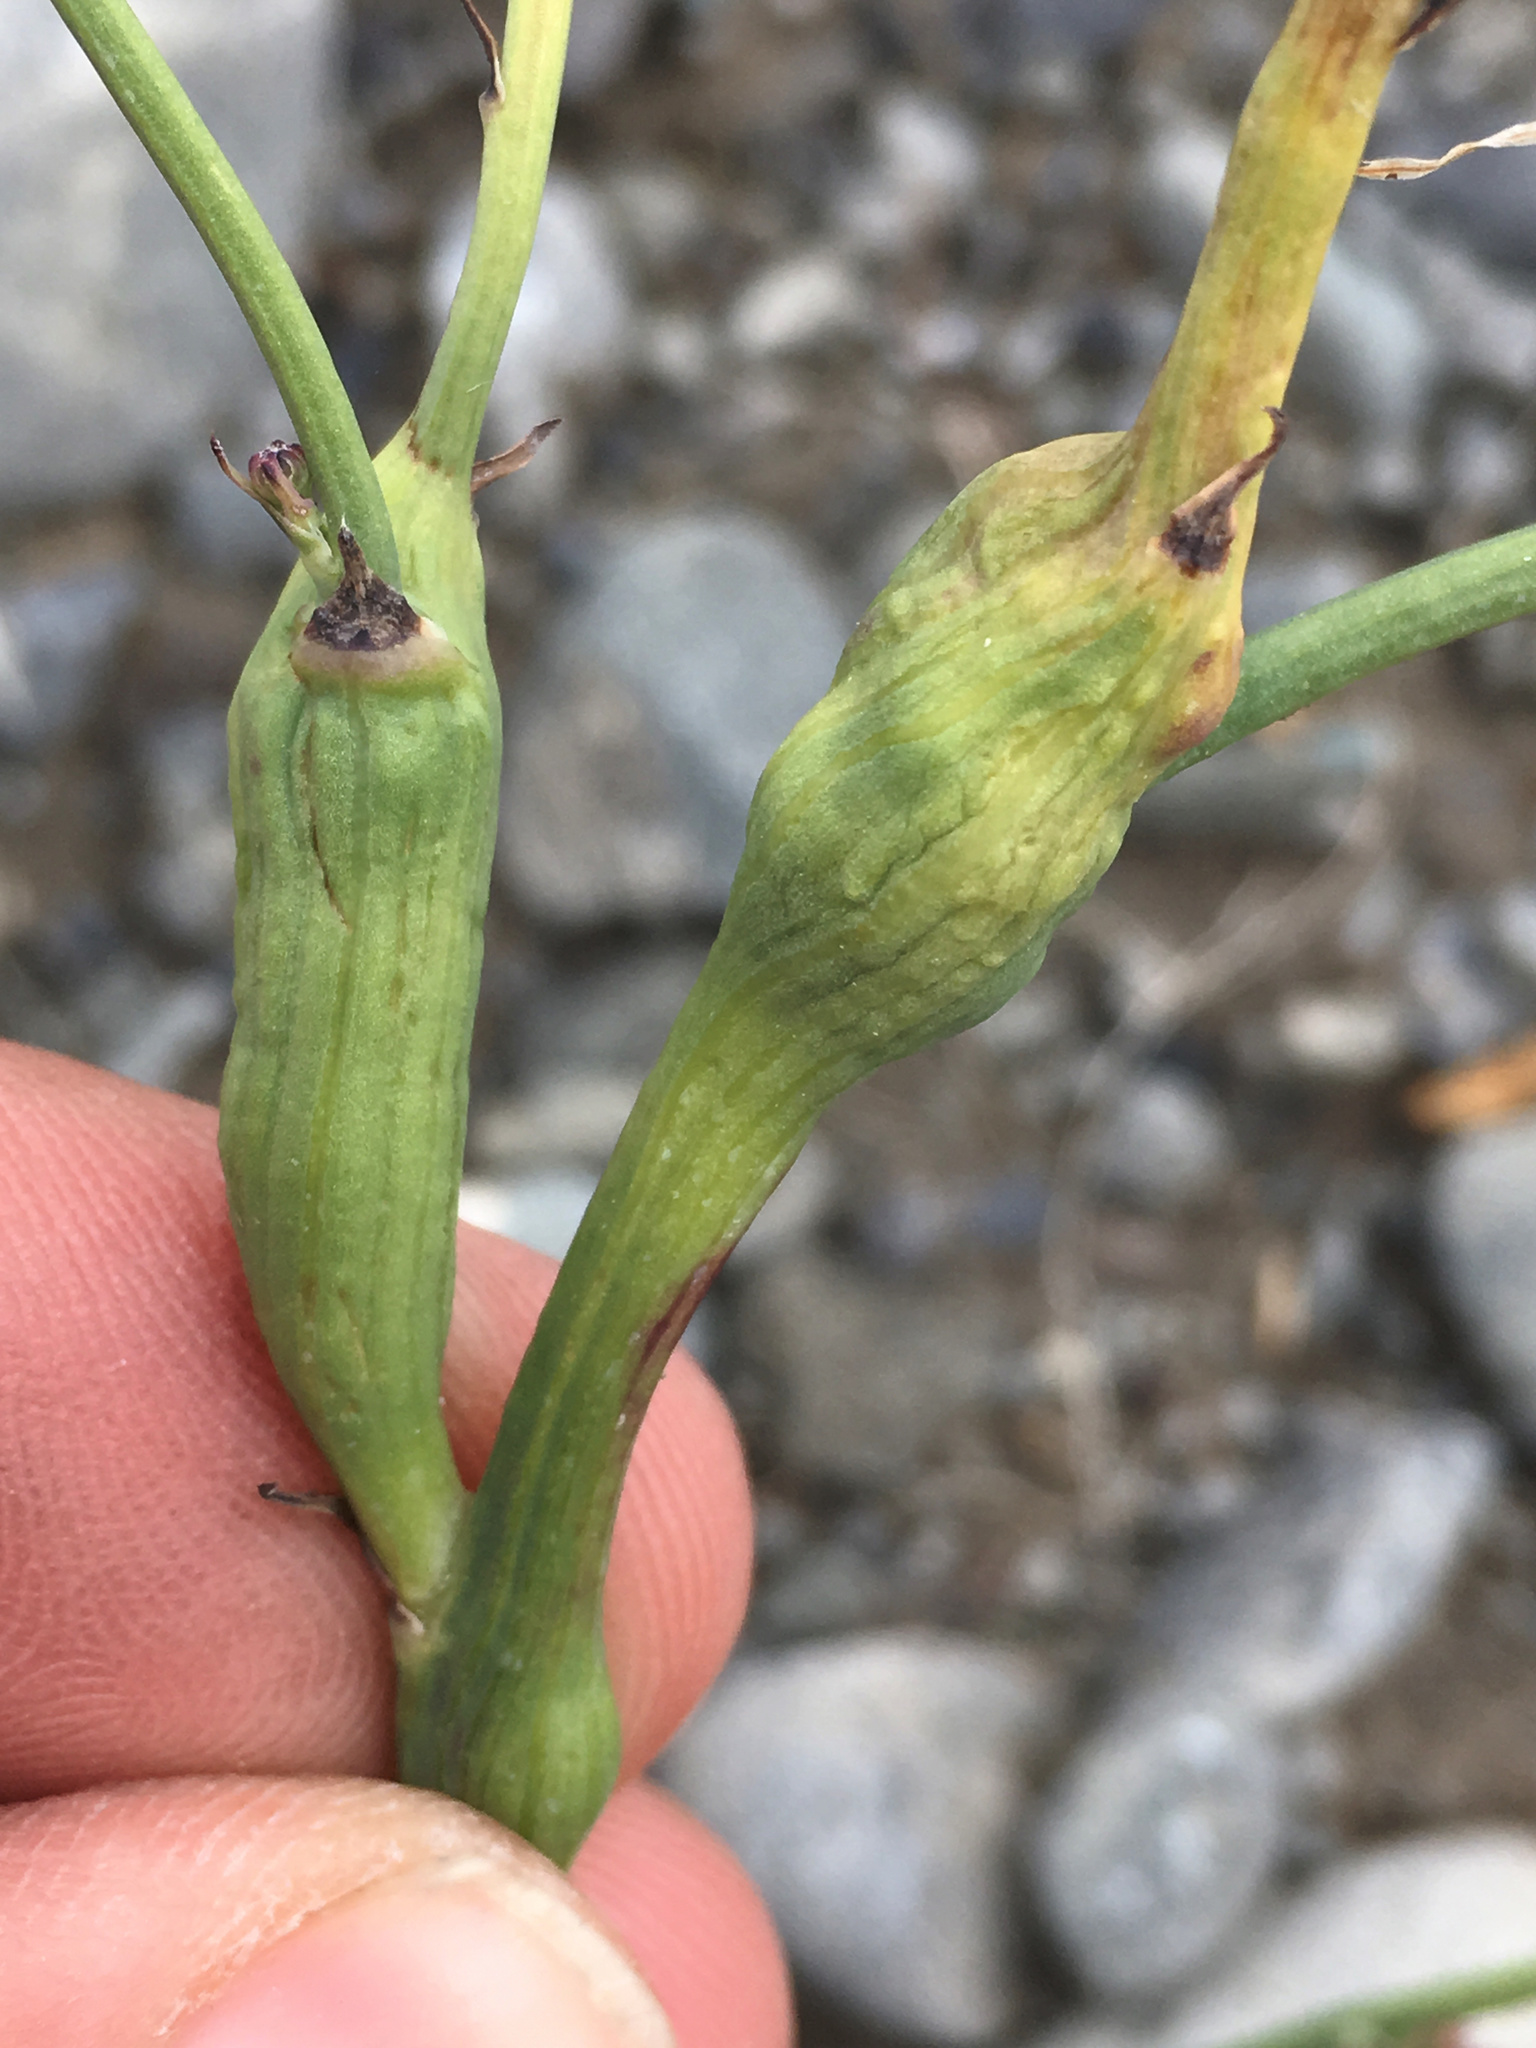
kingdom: Animalia
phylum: Arthropoda
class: Insecta
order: Hymenoptera
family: Cynipidae
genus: Phanacis
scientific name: Phanacis hypochoeridis
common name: Gall wasp
